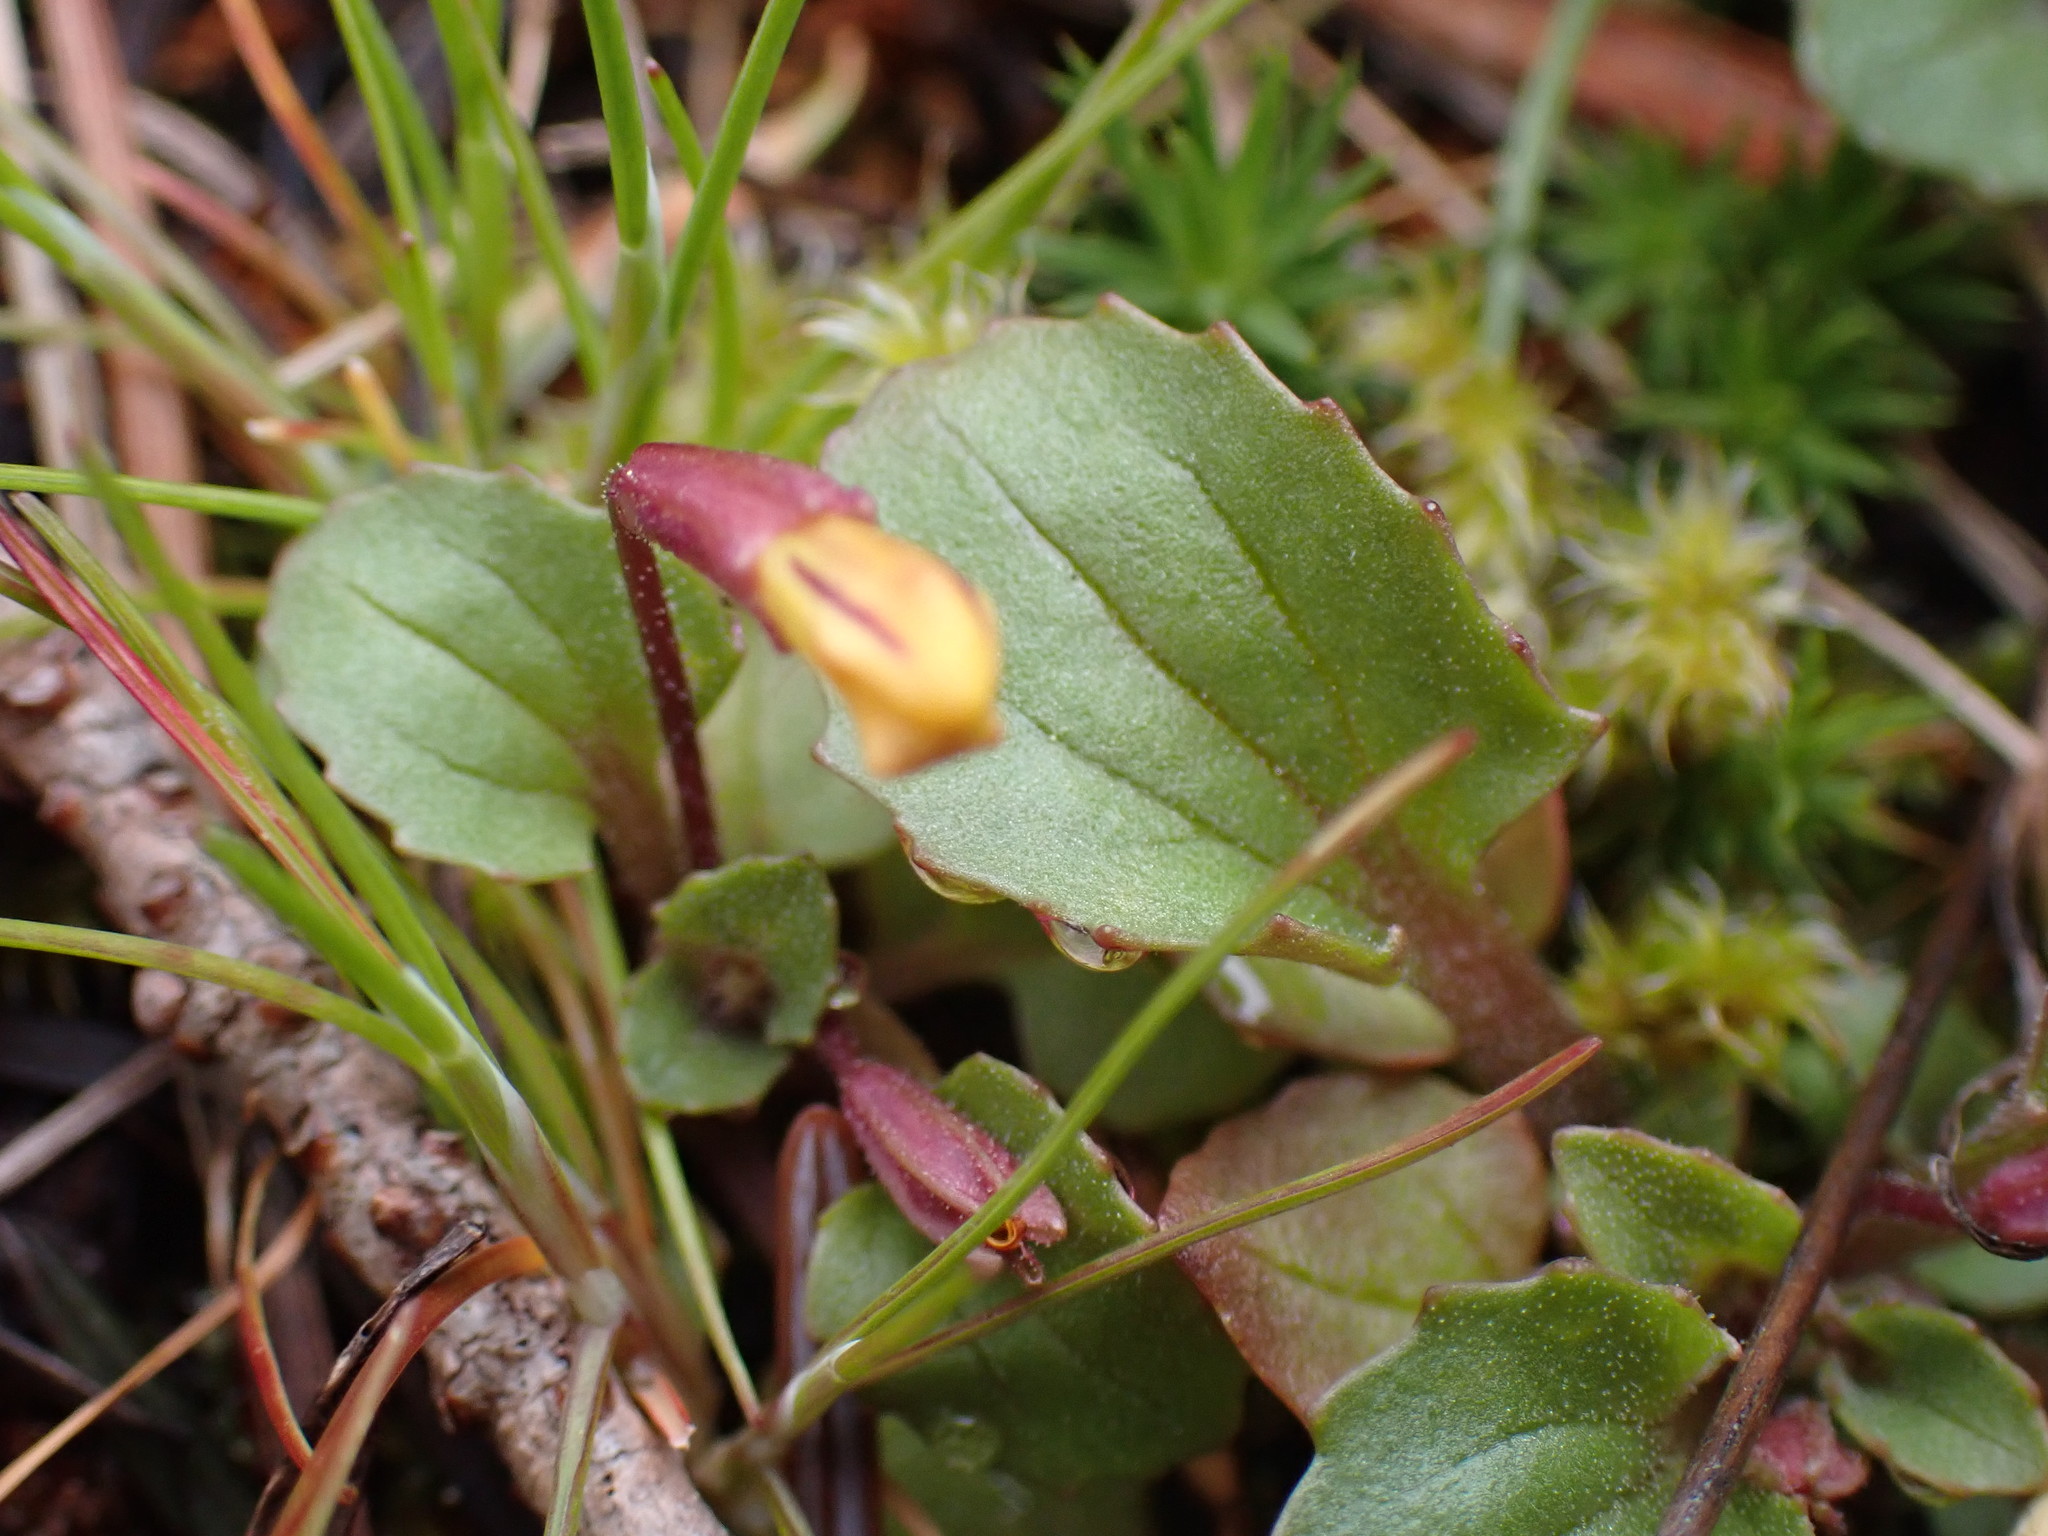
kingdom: Plantae
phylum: Tracheophyta
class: Magnoliopsida
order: Lamiales
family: Phrymaceae
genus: Erythranthe
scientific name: Erythranthe alsinoides
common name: Chickweed monkeyflower
